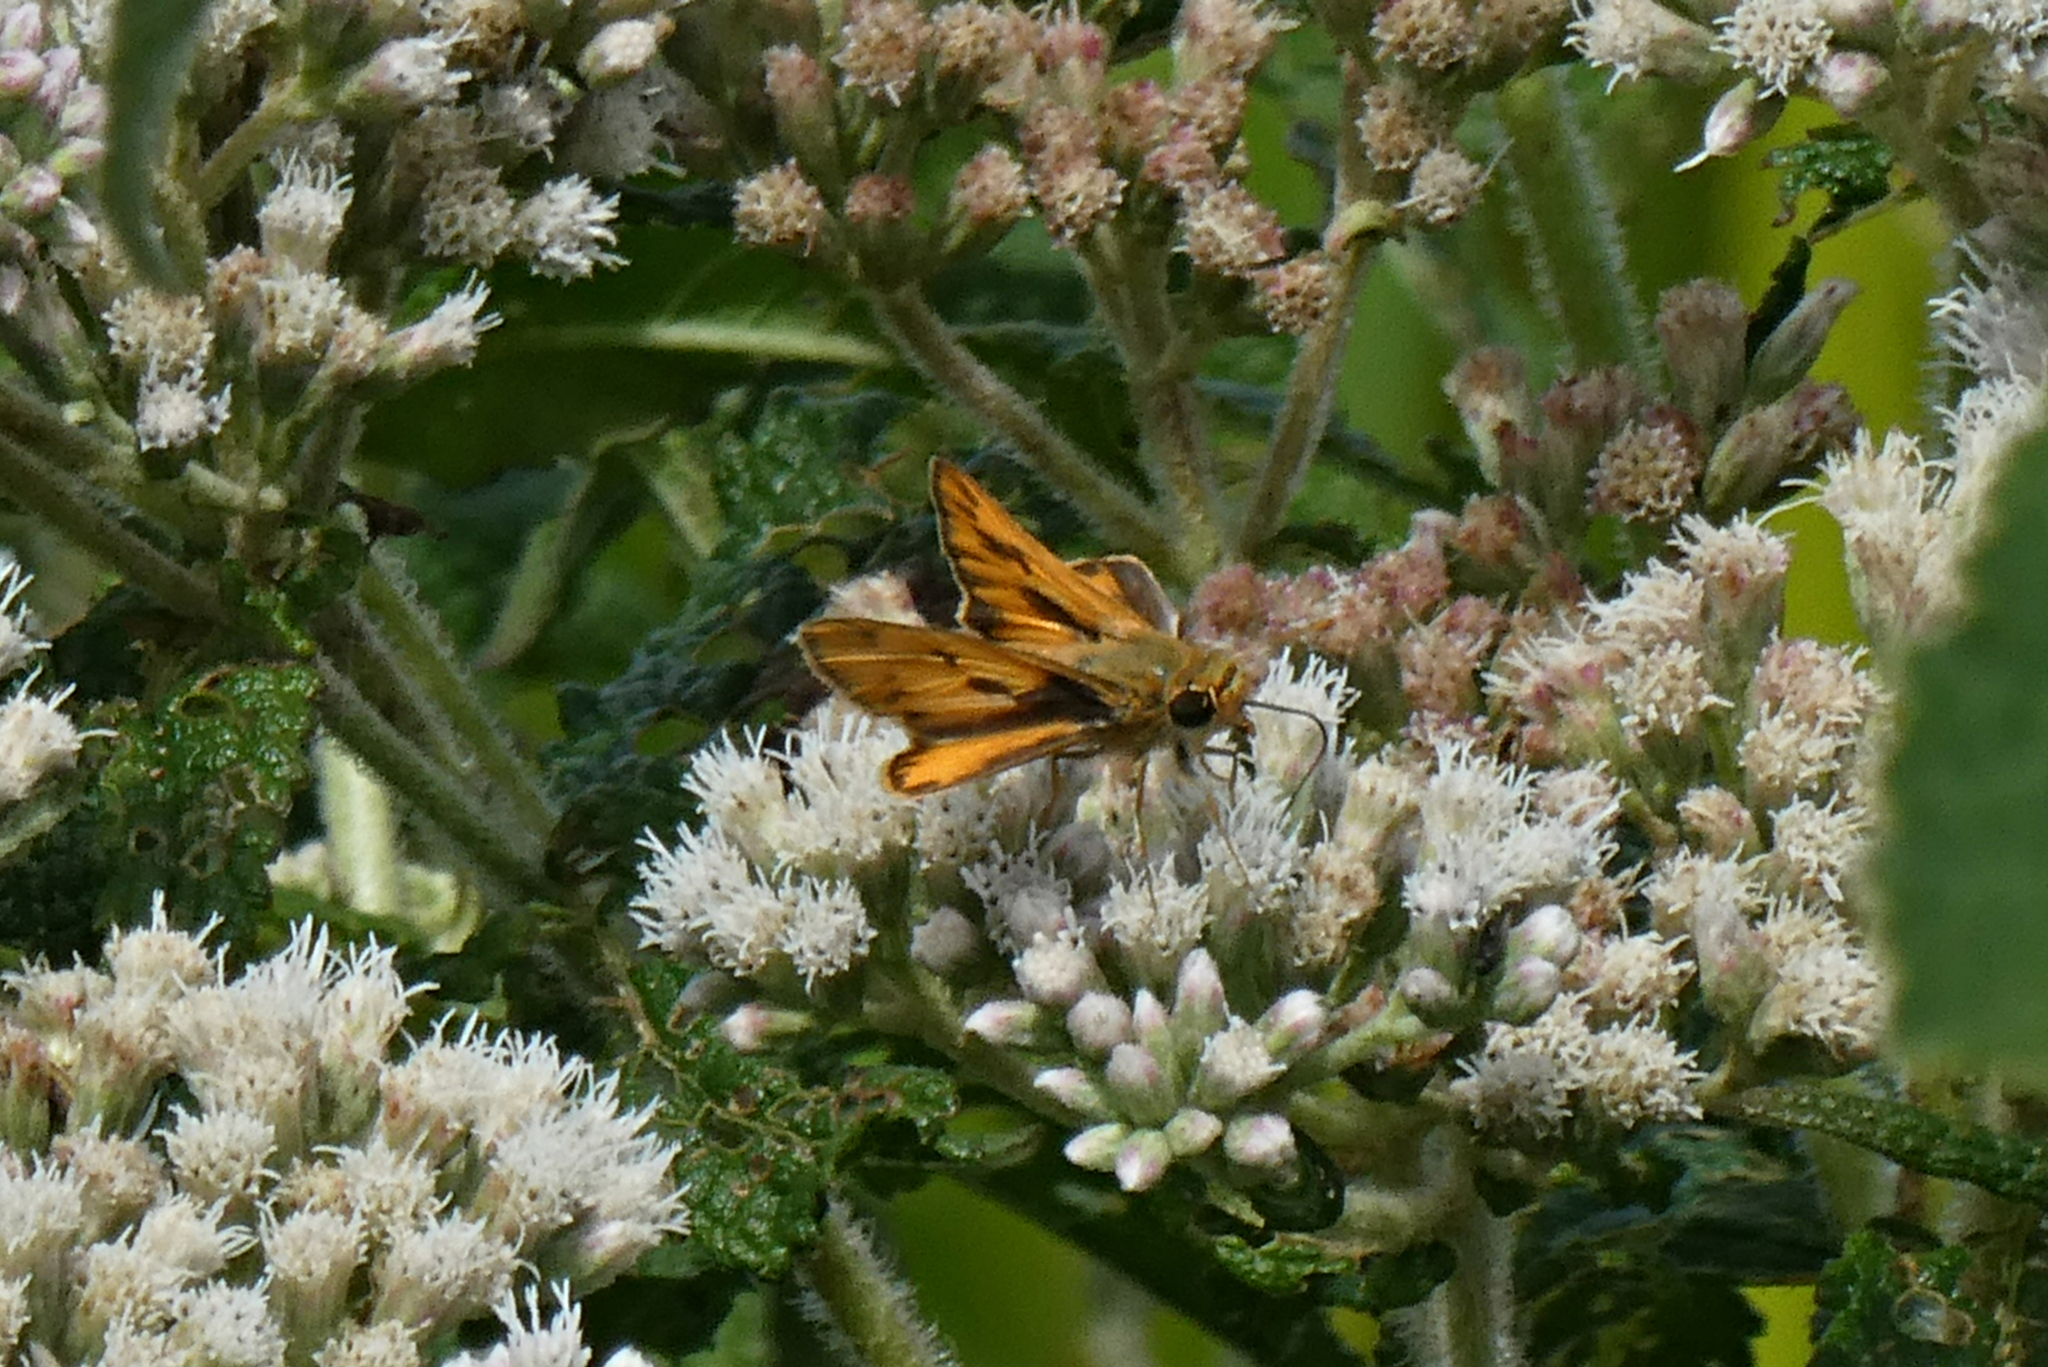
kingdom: Animalia
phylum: Arthropoda
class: Insecta
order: Lepidoptera
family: Hesperiidae
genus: Hylephila
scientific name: Hylephila phyleus
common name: Fiery skipper
